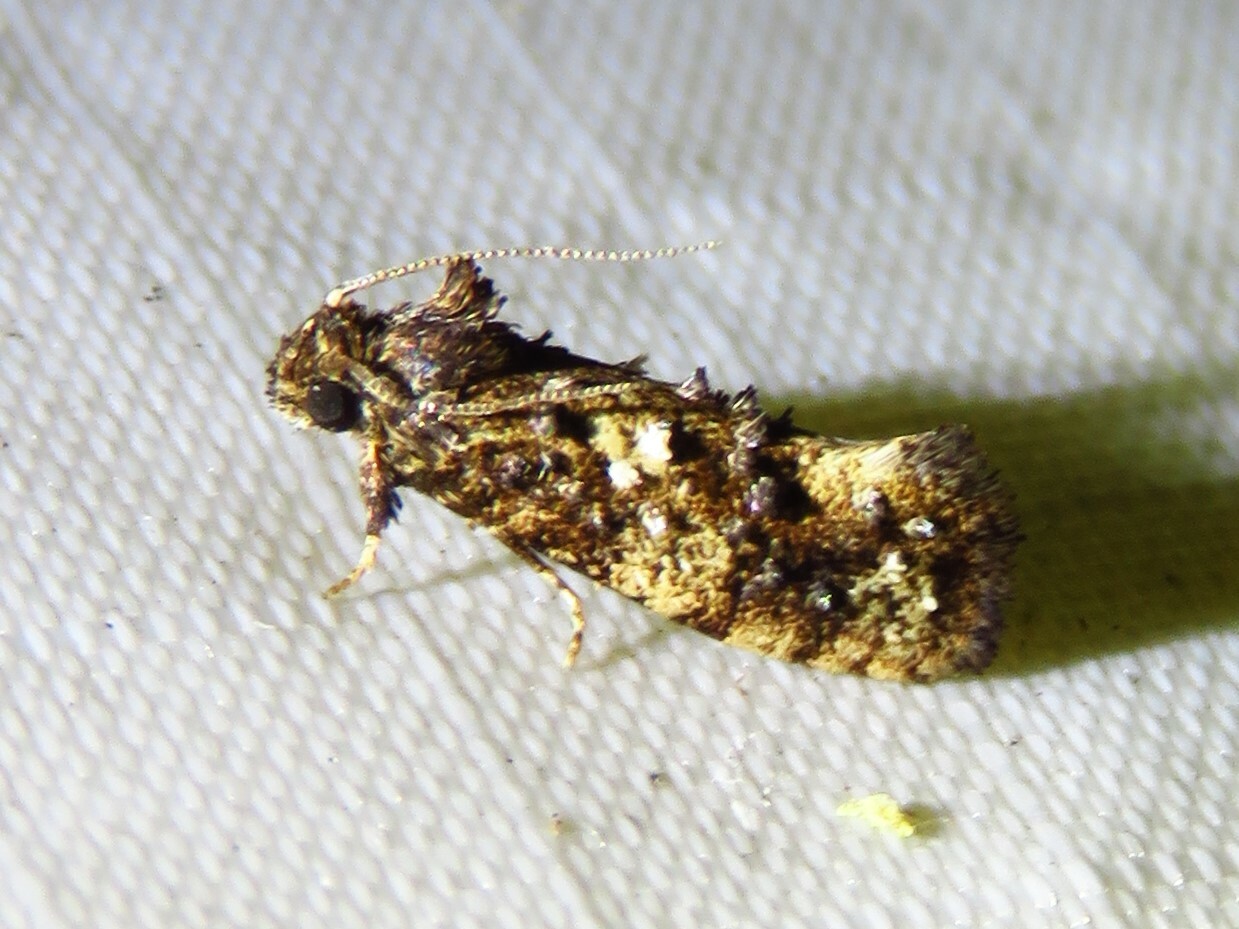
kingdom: Animalia
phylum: Arthropoda
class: Insecta
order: Lepidoptera
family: Tineidae
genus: Acrolophus
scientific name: Acrolophus cressoni
